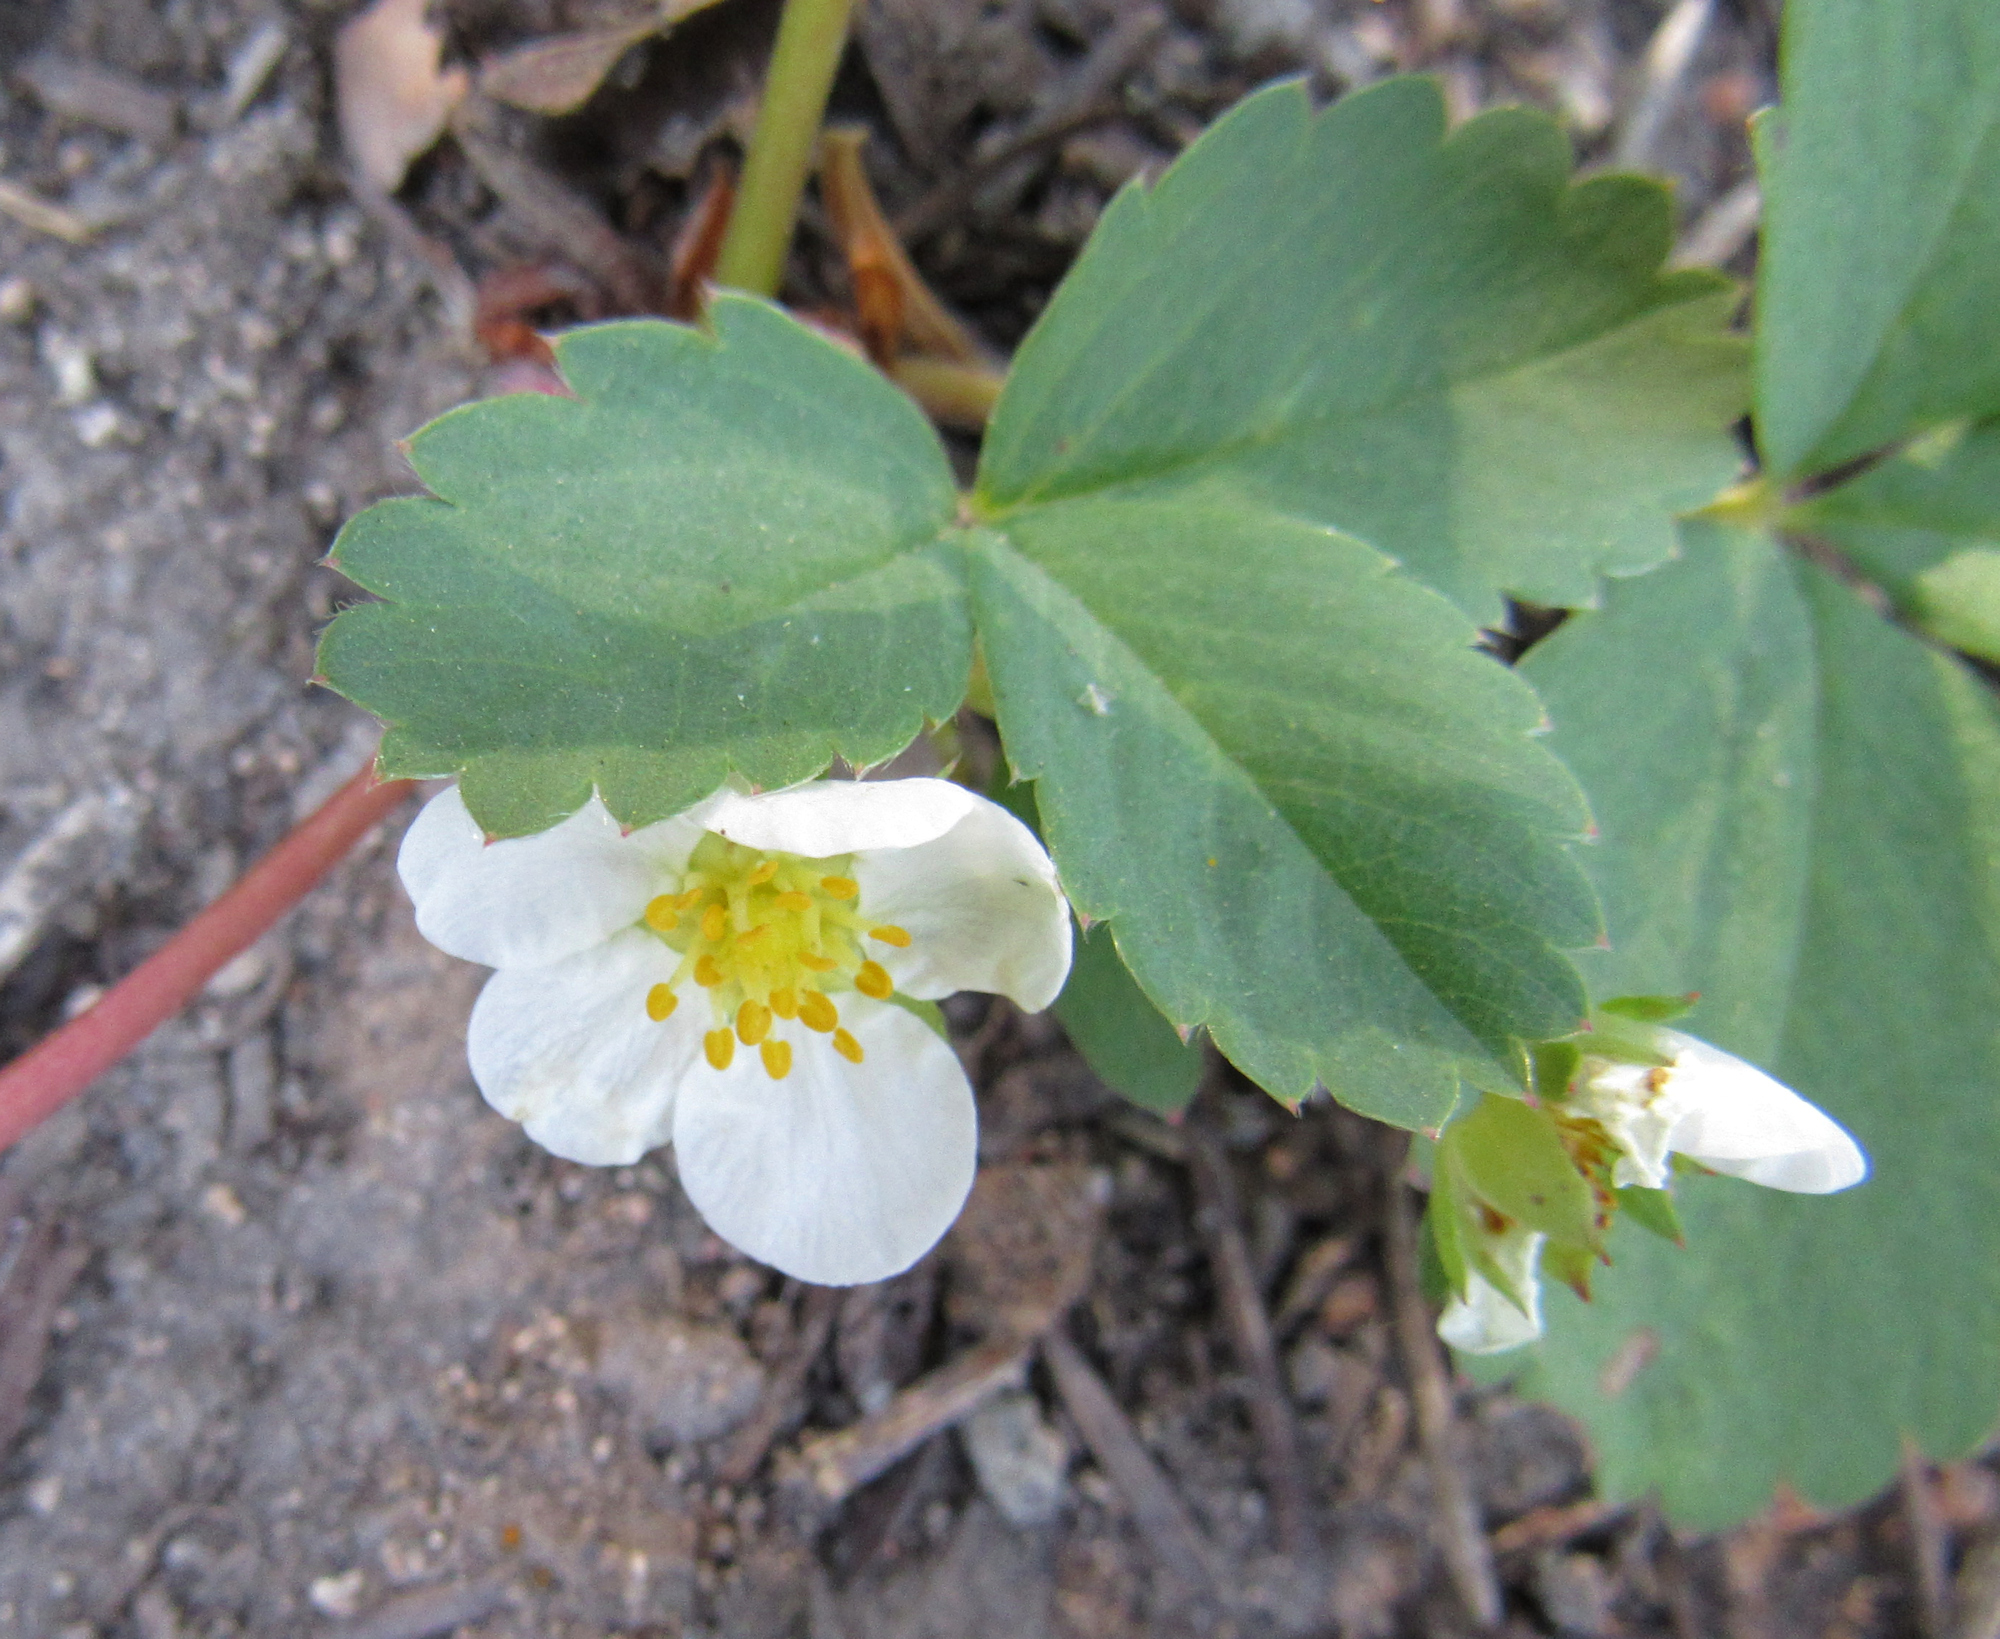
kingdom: Plantae
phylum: Tracheophyta
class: Magnoliopsida
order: Rosales
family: Rosaceae
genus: Fragaria
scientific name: Fragaria virginiana
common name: Thickleaved wild strawberry
